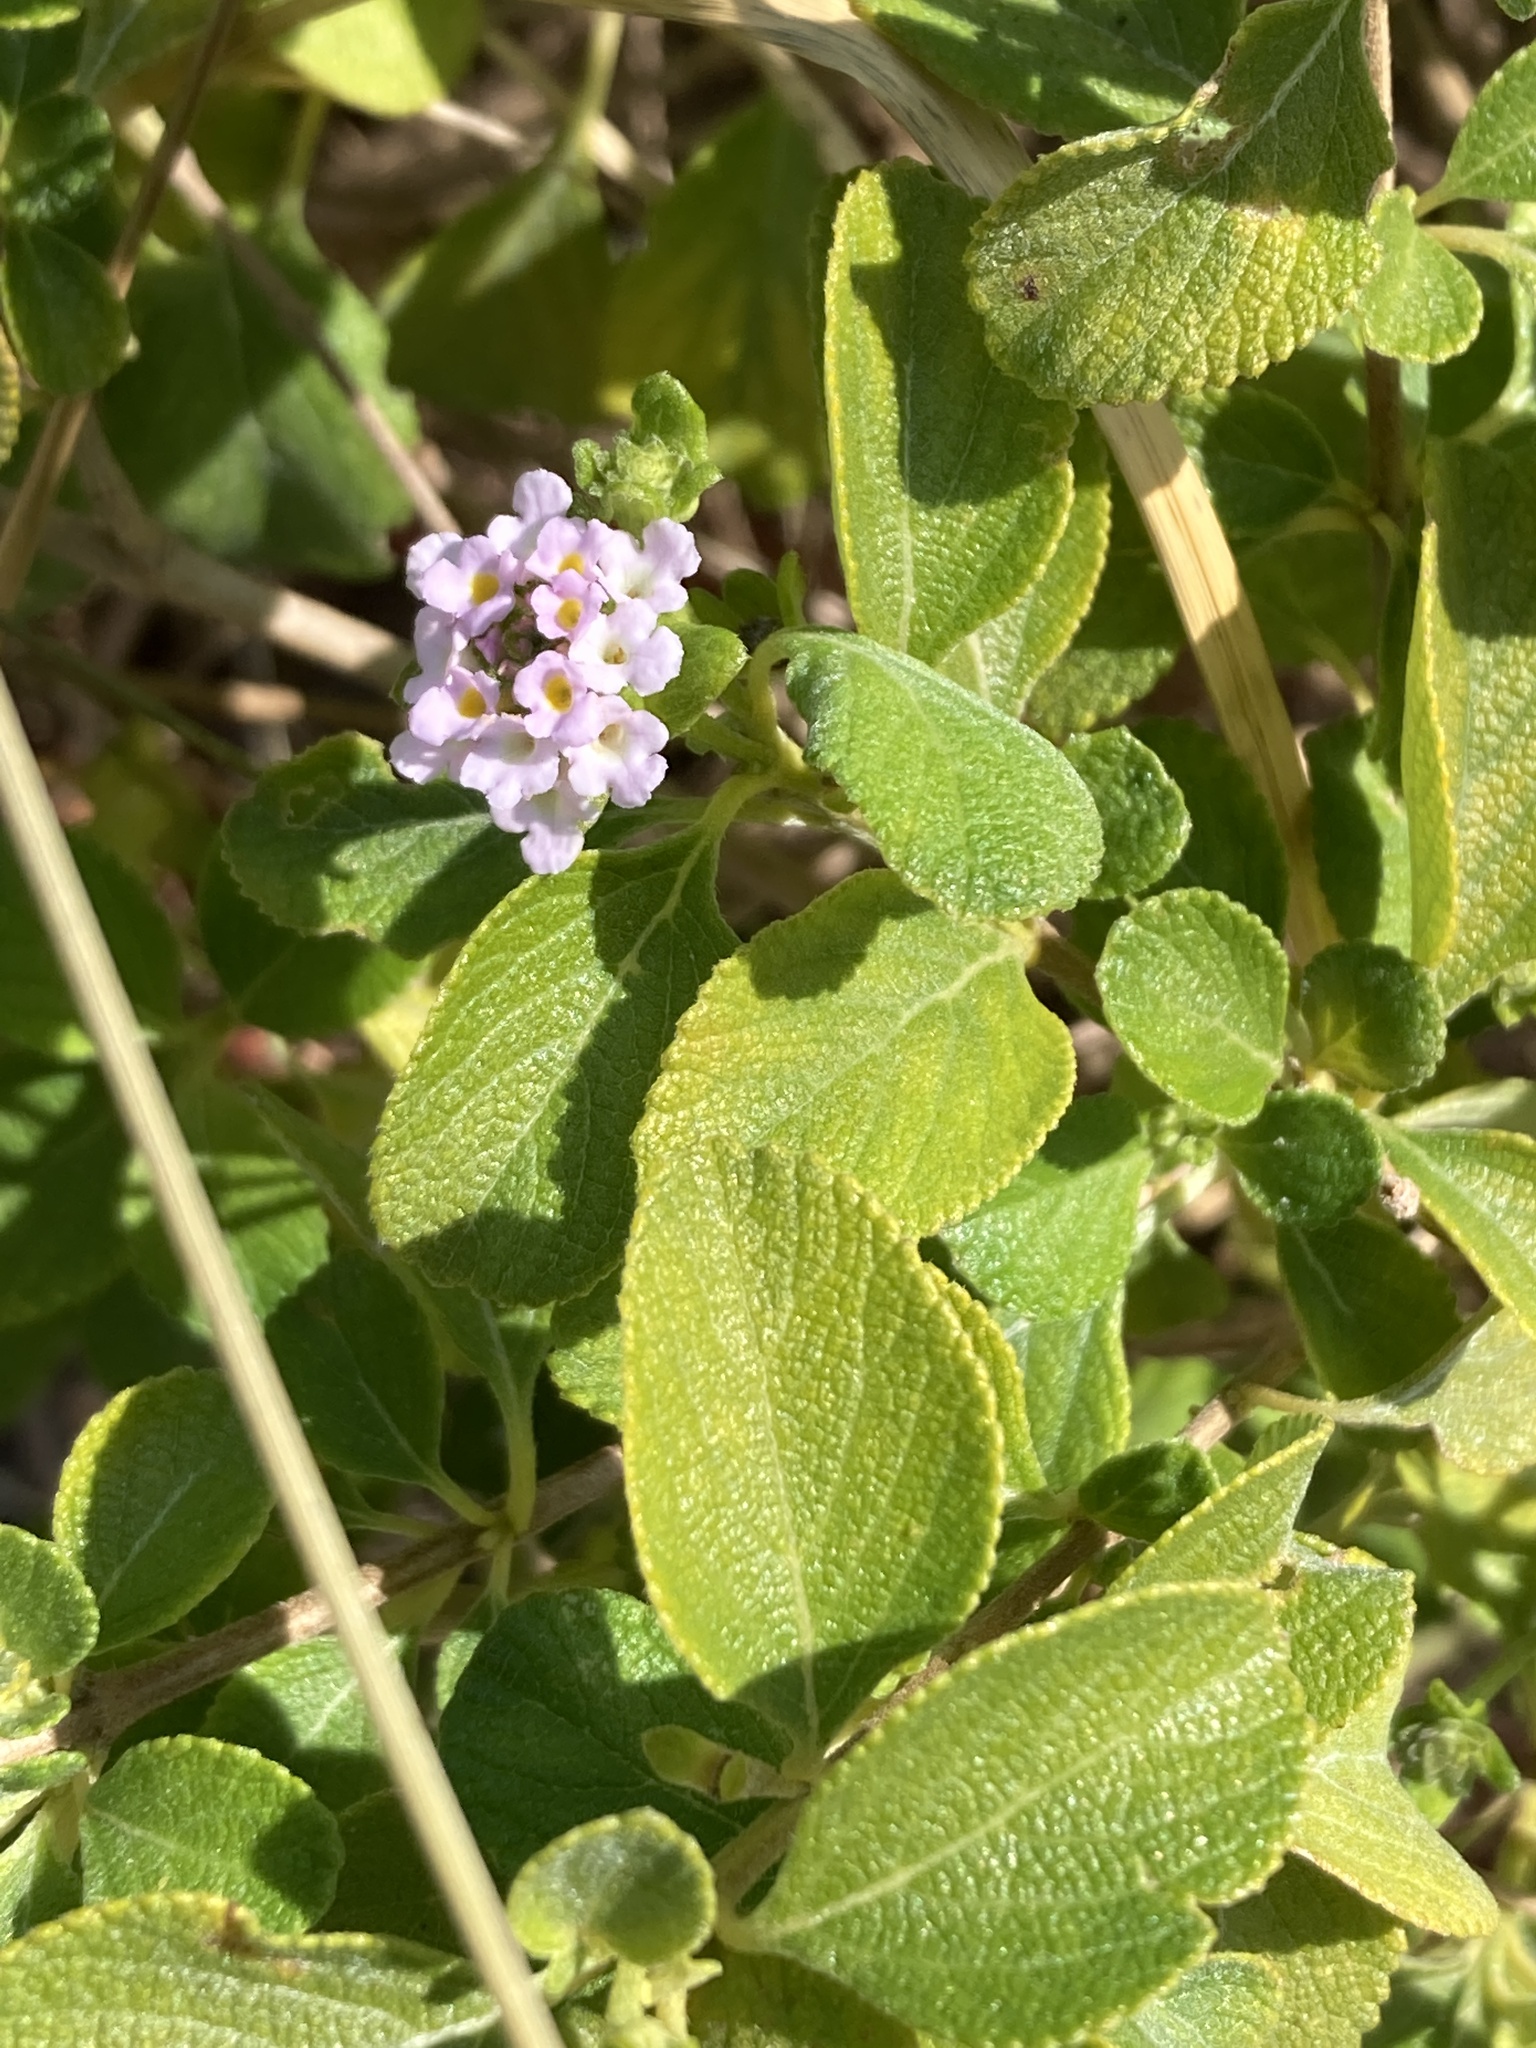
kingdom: Plantae
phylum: Tracheophyta
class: Magnoliopsida
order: Lamiales
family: Verbenaceae
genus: Lantana
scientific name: Lantana involucrata
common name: Black sage
